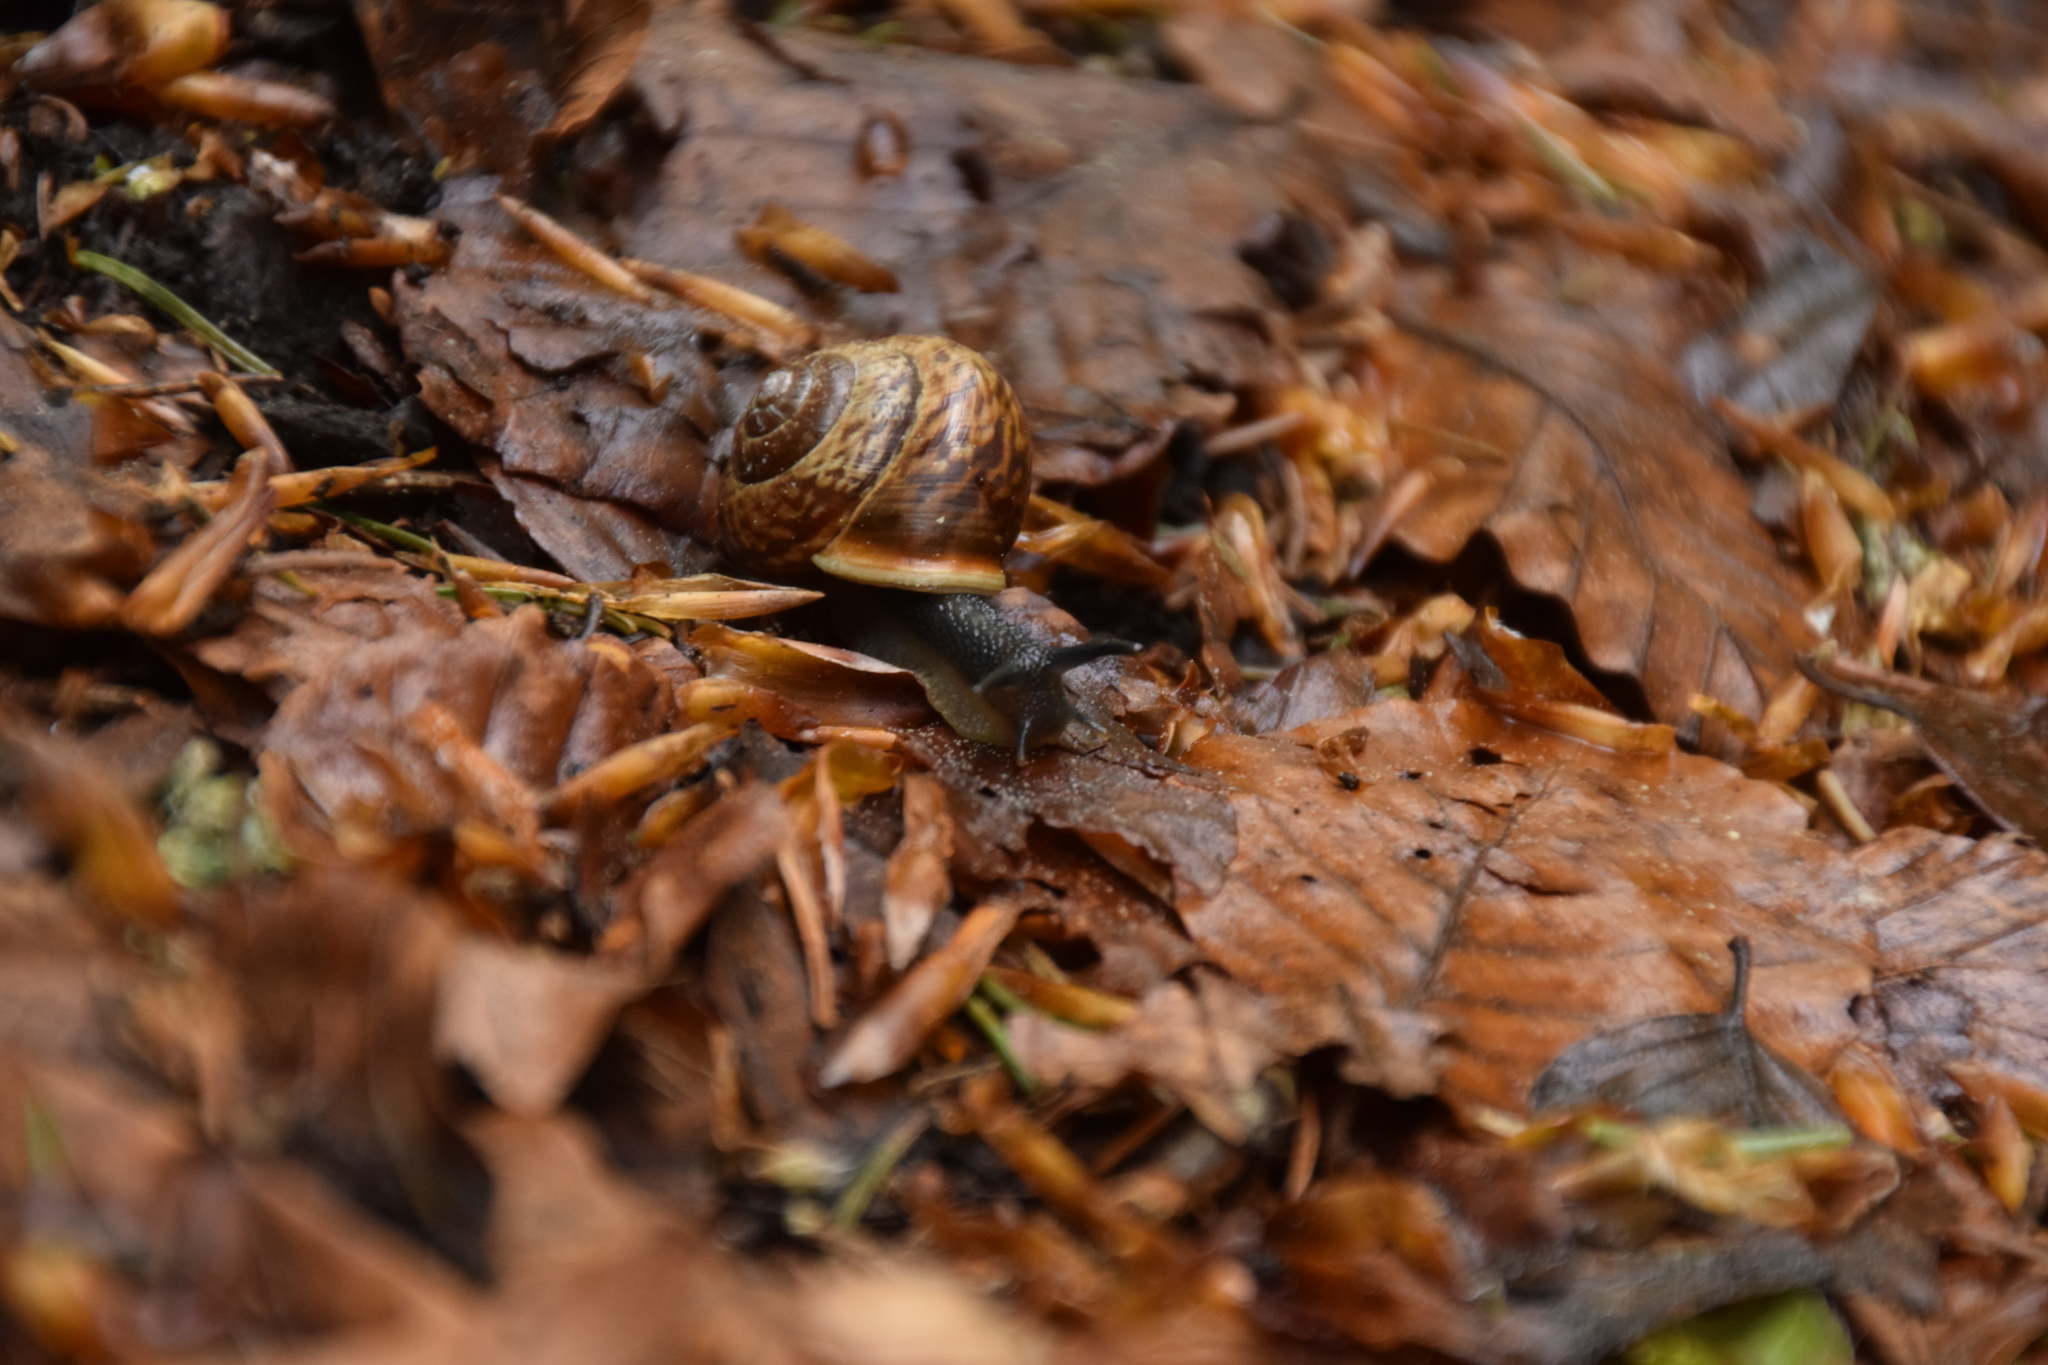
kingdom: Animalia
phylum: Mollusca
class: Gastropoda
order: Stylommatophora
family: Helicidae
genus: Arianta
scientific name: Arianta arbustorum
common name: Copse snail
